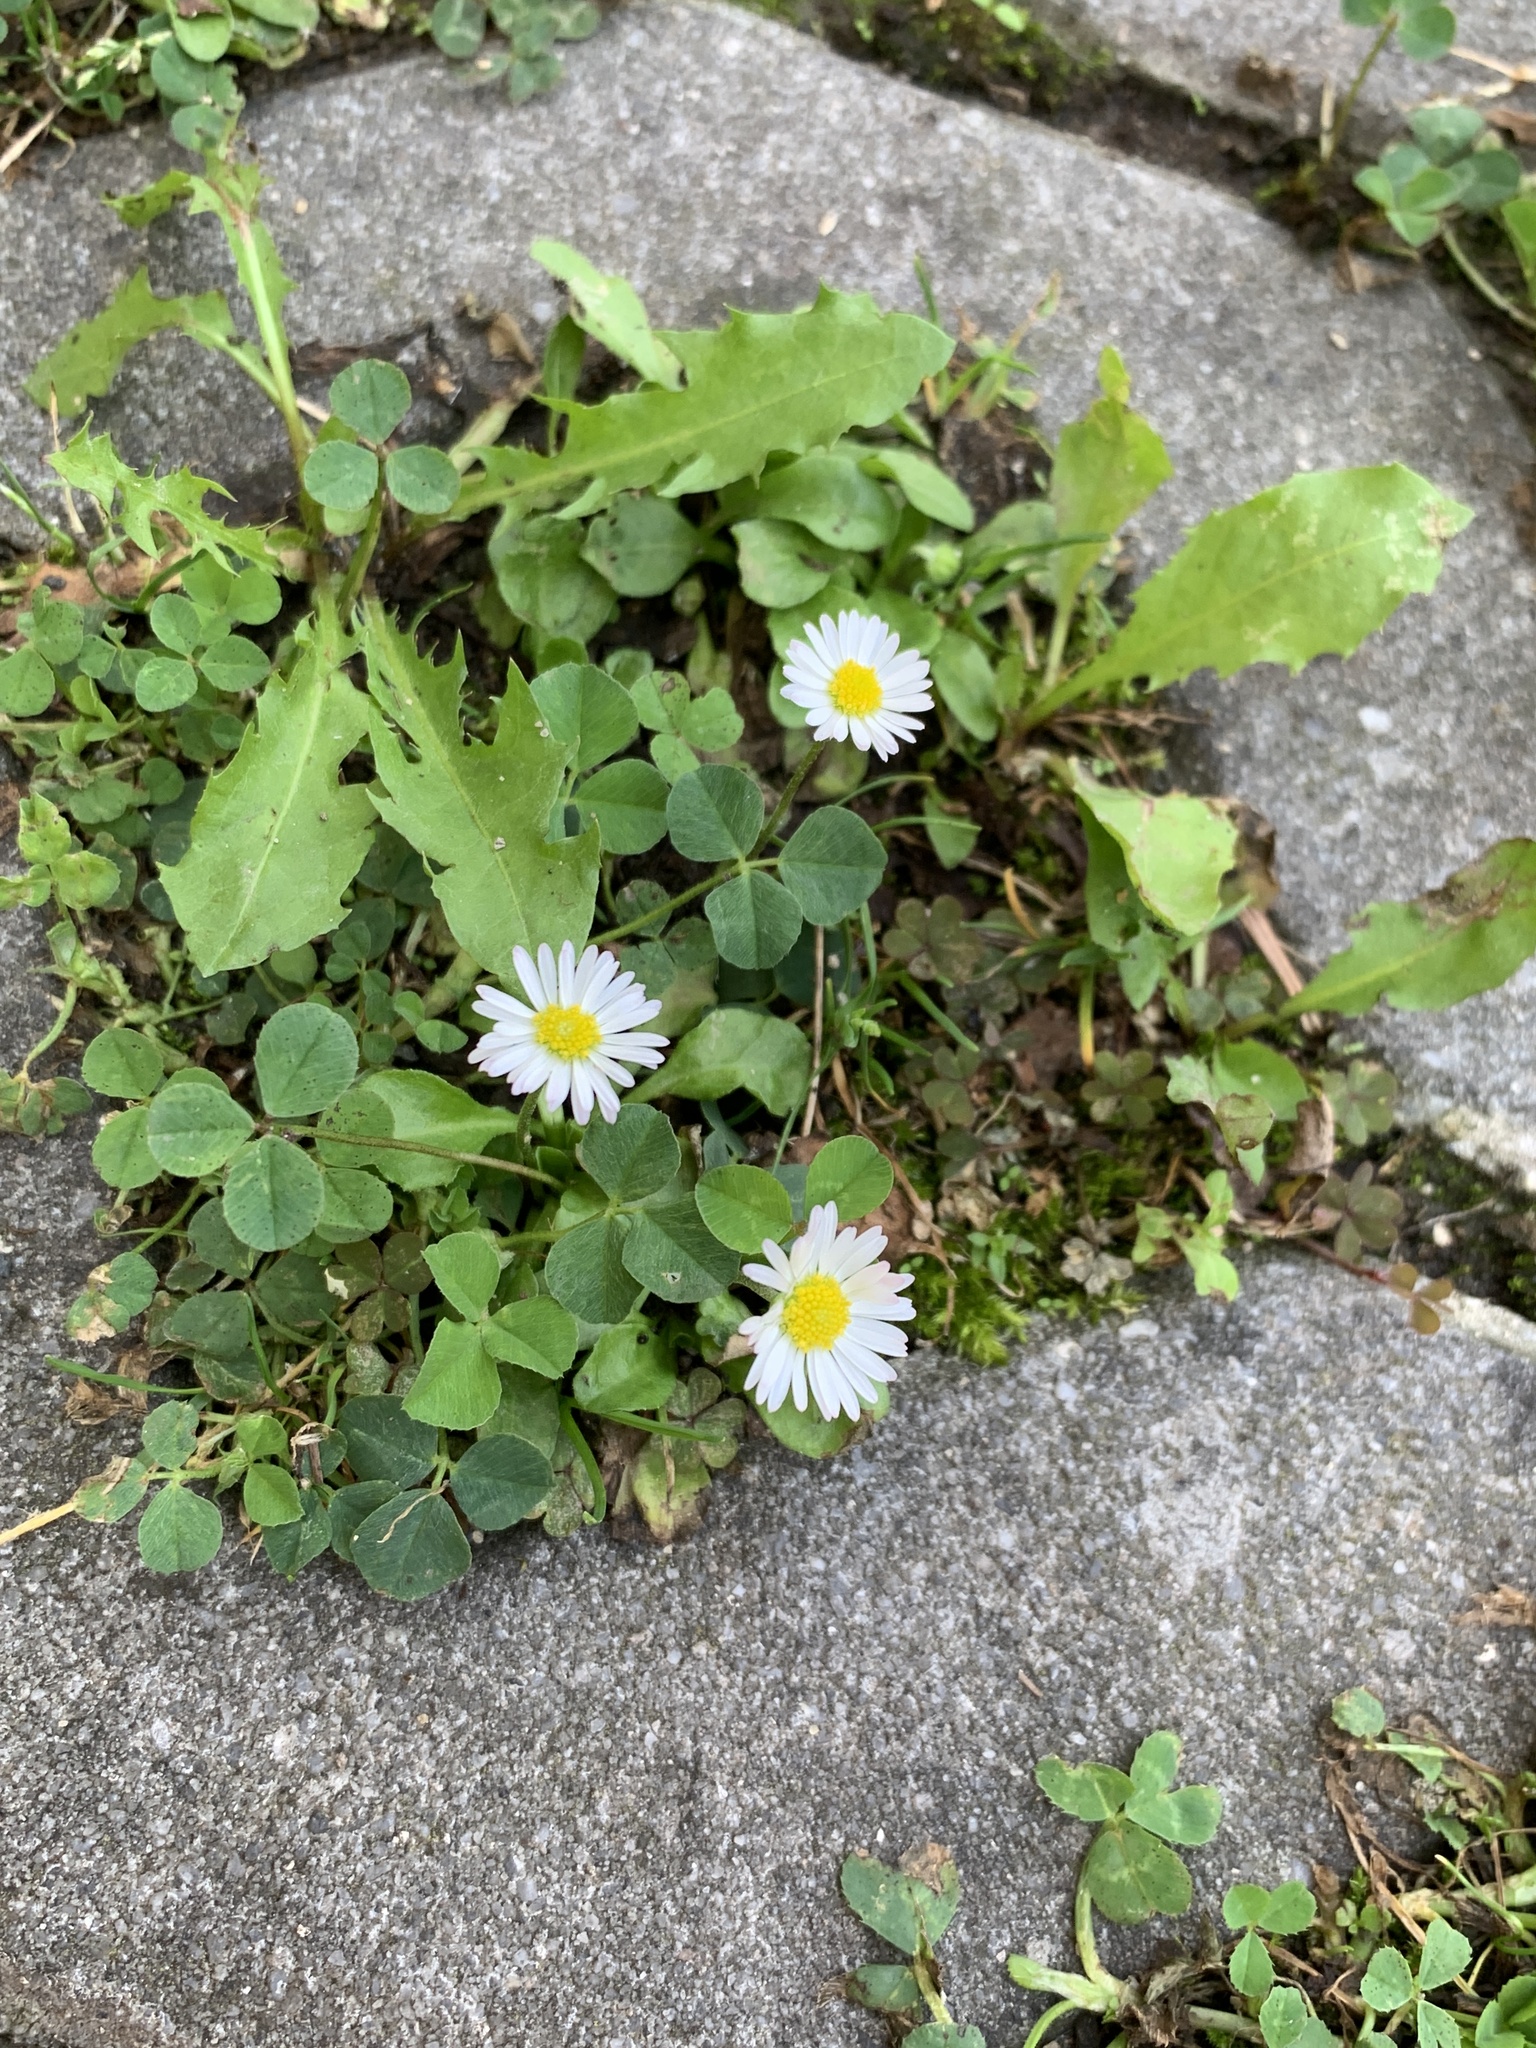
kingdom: Plantae
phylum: Tracheophyta
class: Magnoliopsida
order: Asterales
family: Asteraceae
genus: Bellis
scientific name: Bellis perennis
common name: Lawndaisy
